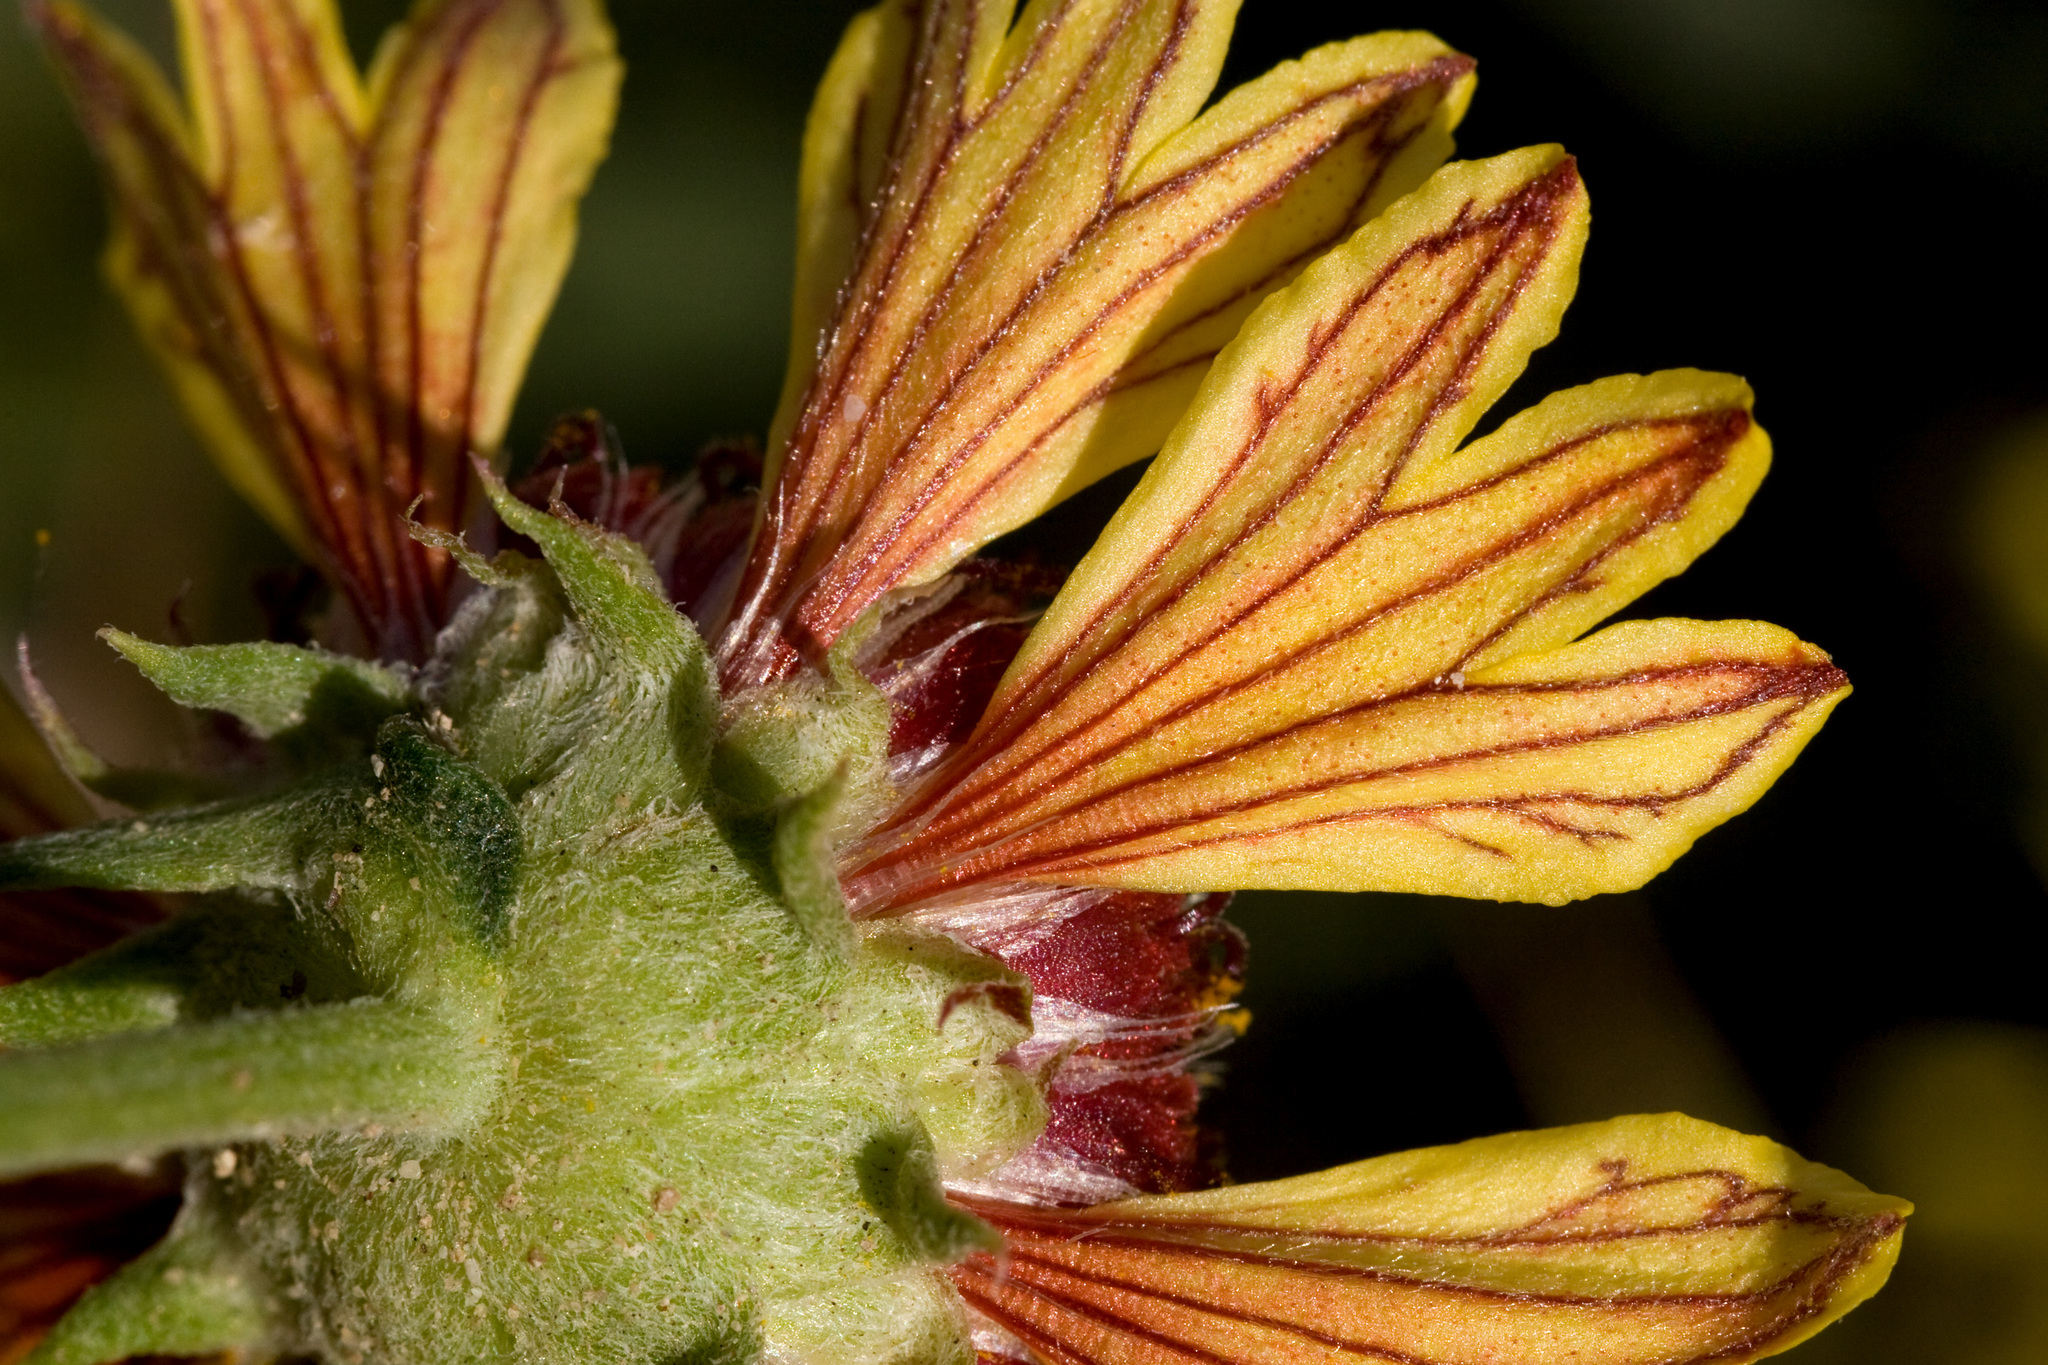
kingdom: Plantae
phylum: Tracheophyta
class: Magnoliopsida
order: Asterales
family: Asteraceae
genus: Gaillardia
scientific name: Gaillardia multiceps
